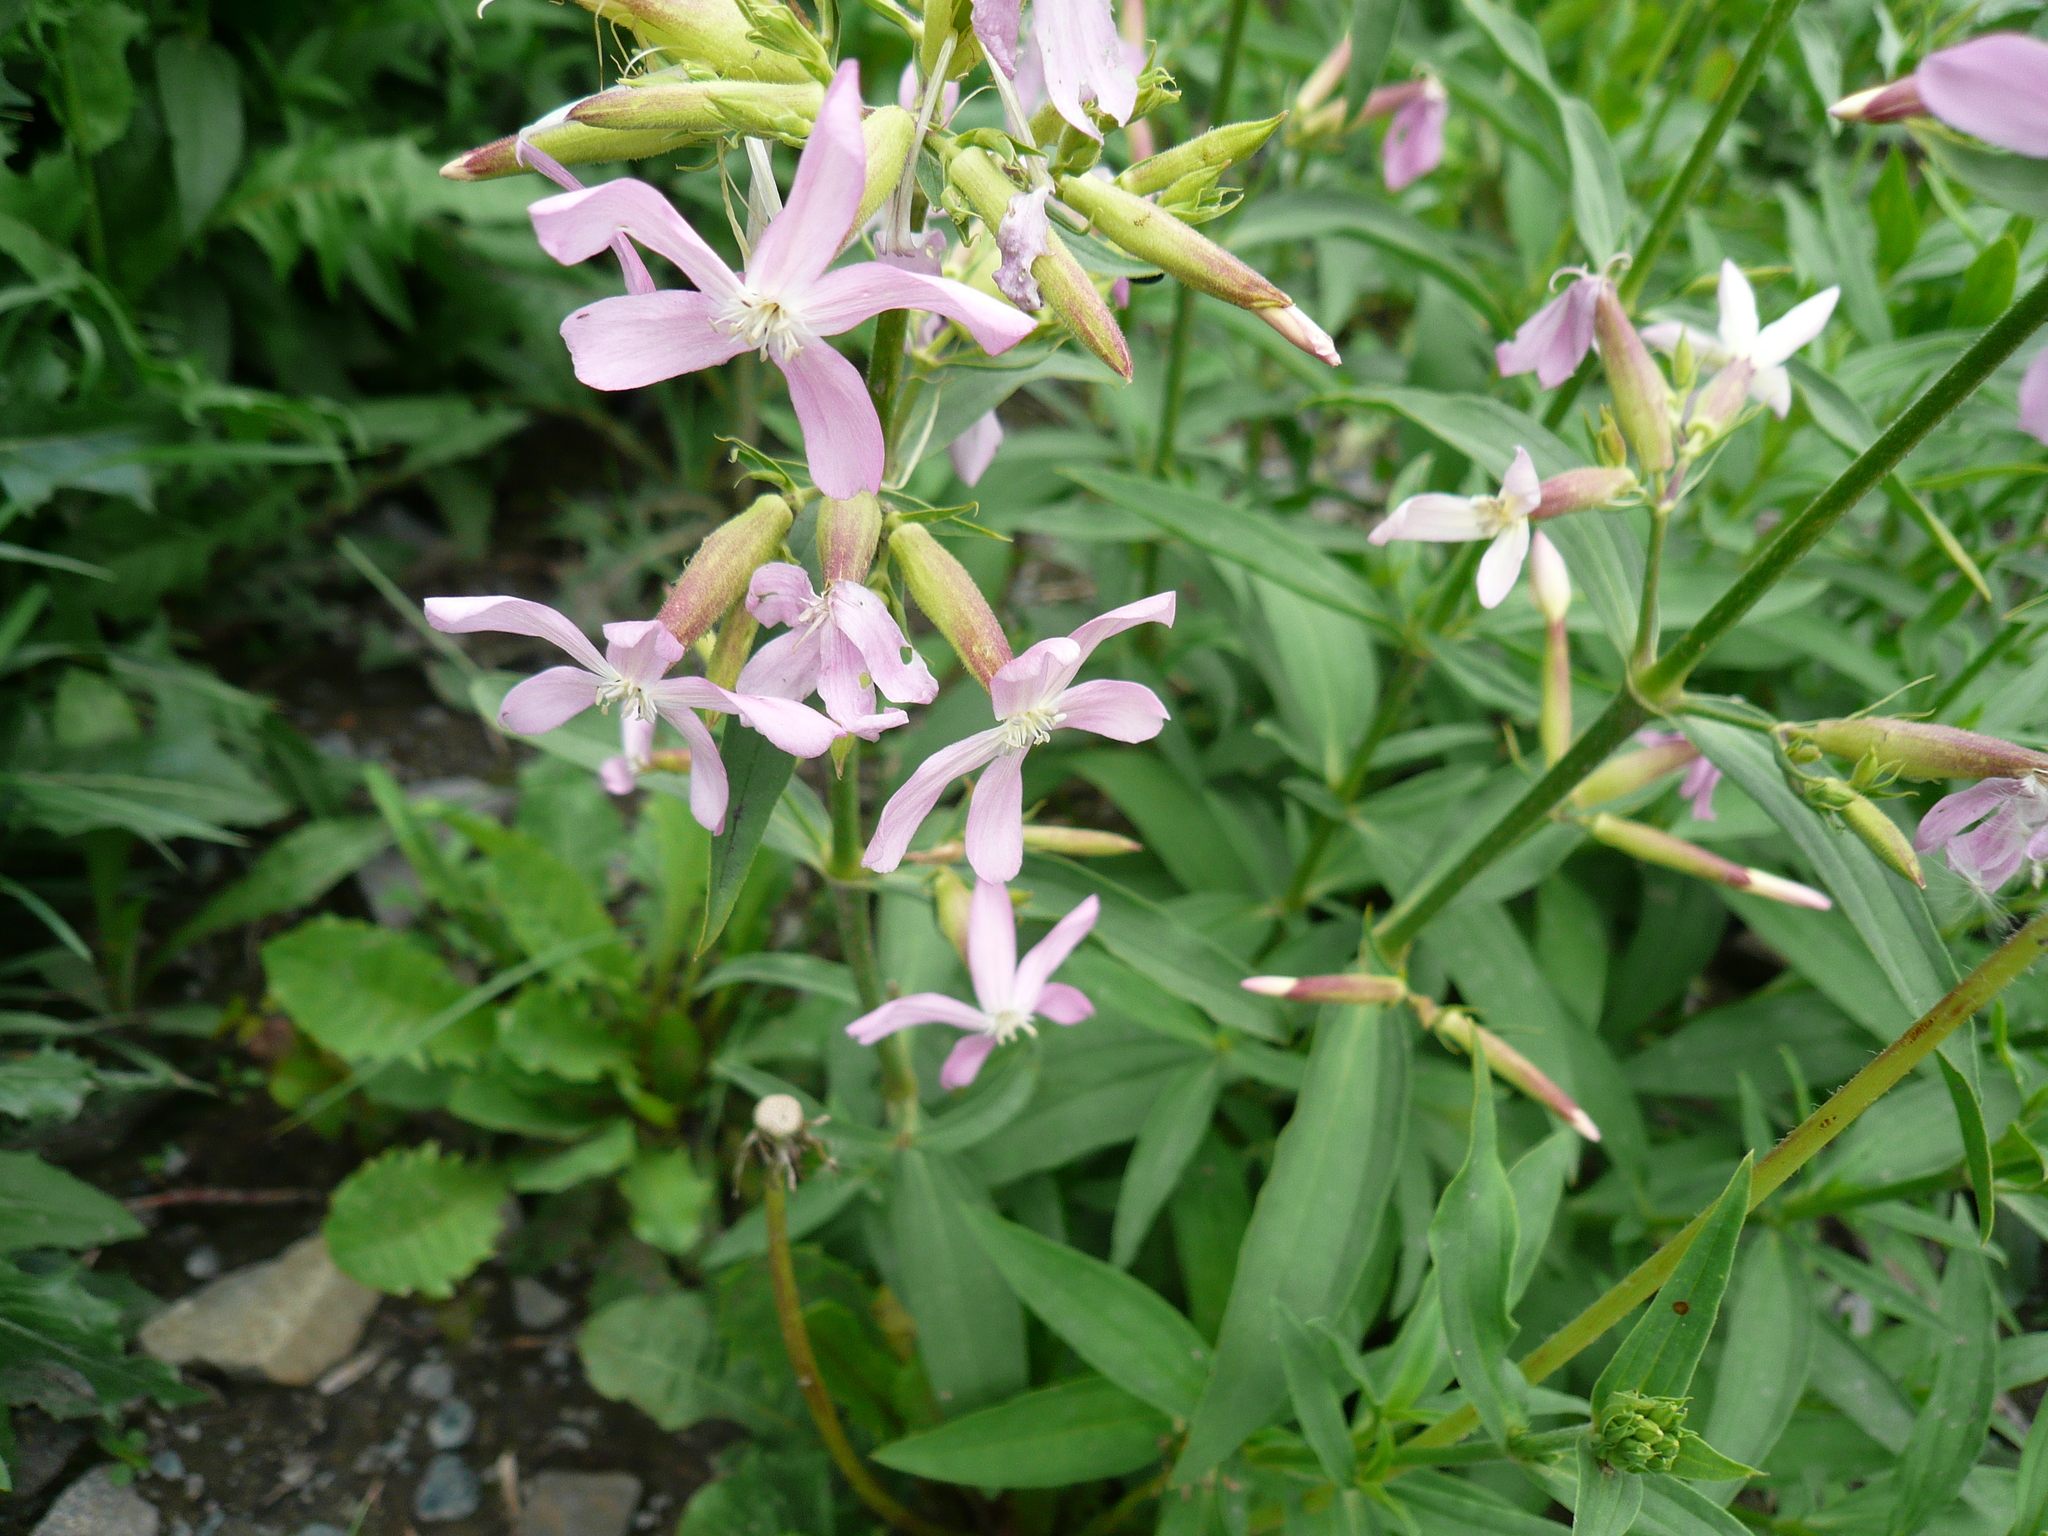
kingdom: Plantae
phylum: Tracheophyta
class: Magnoliopsida
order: Caryophyllales
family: Caryophyllaceae
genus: Saponaria
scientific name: Saponaria officinalis
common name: Soapwort
